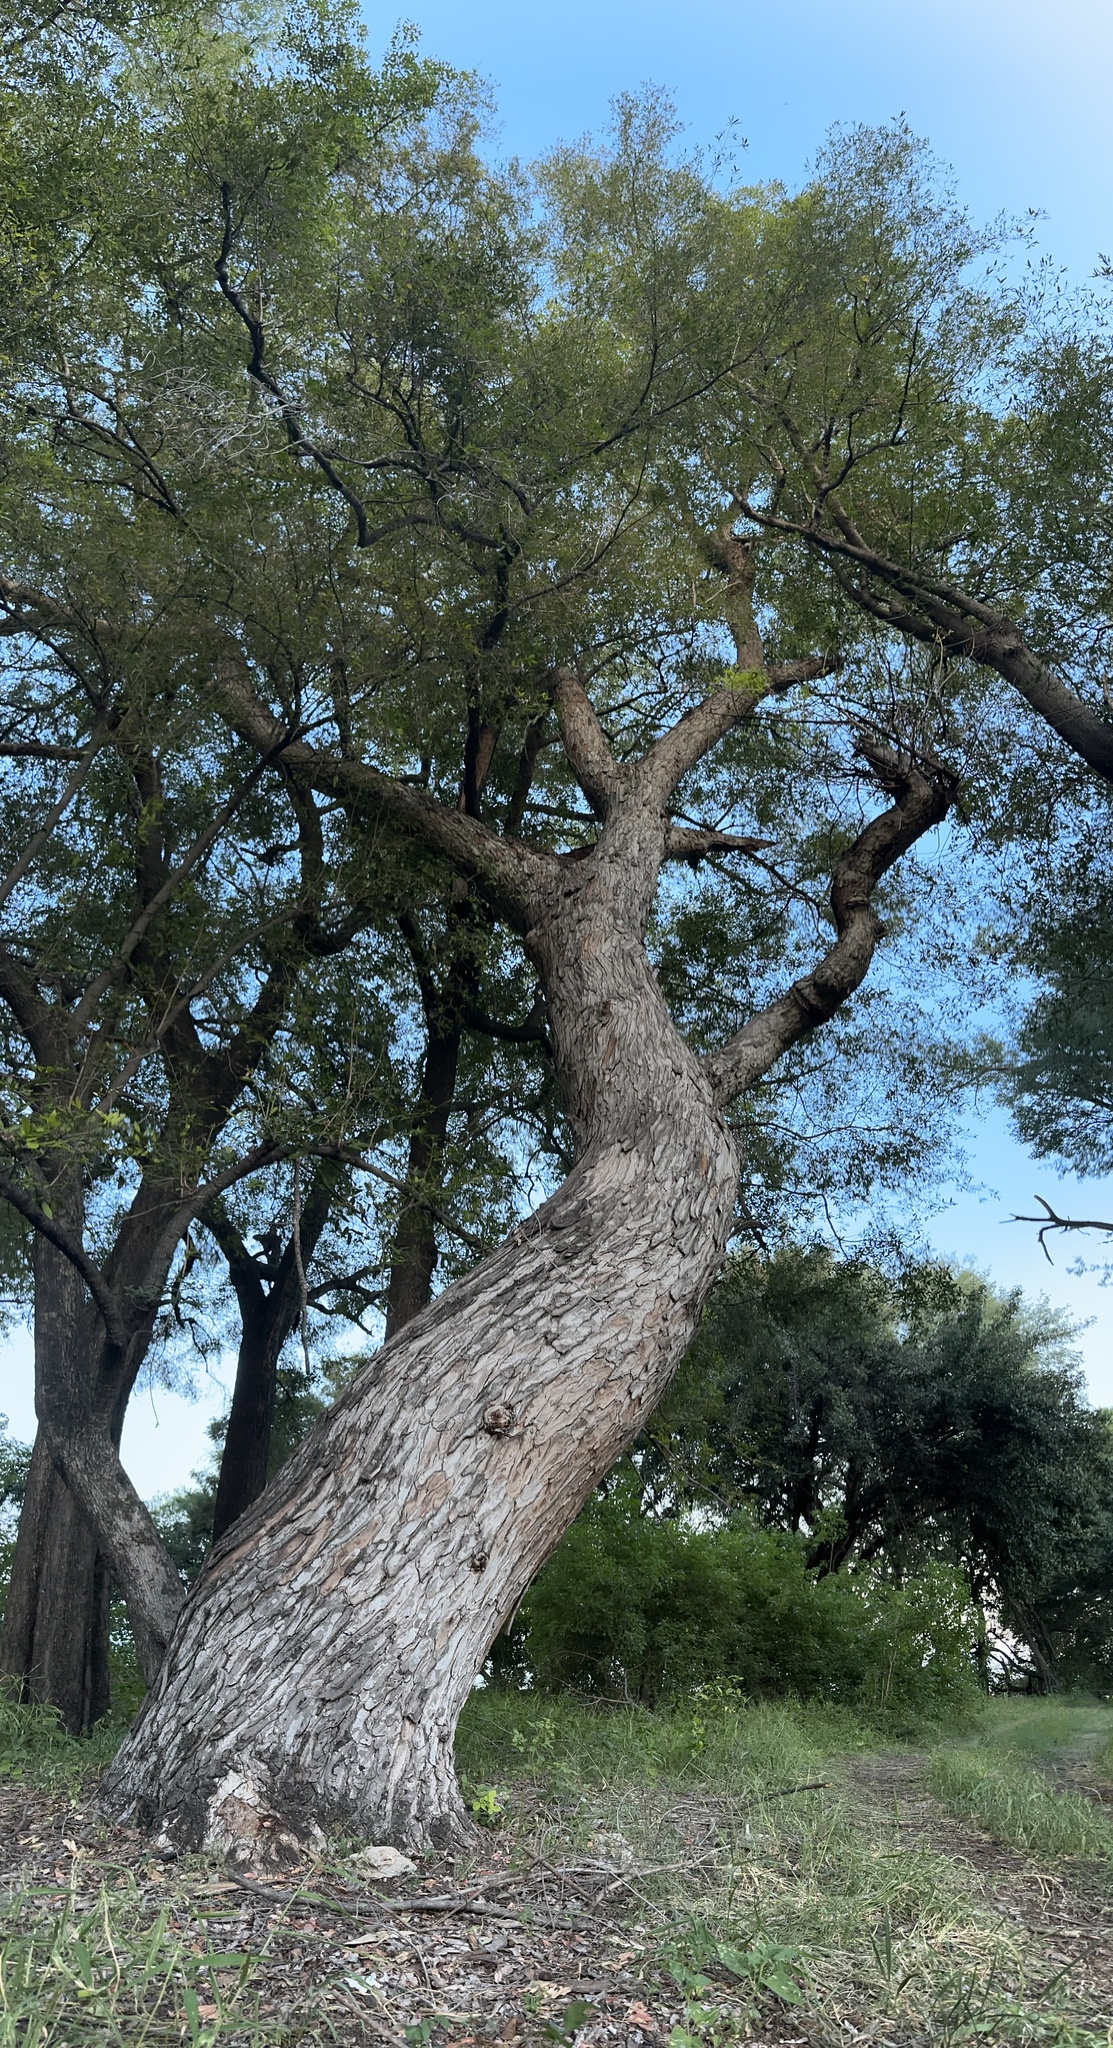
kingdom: Plantae
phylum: Tracheophyta
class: Magnoliopsida
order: Sapindales
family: Anacardiaceae
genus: Sclerocarya
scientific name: Sclerocarya birrea
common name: Marula
